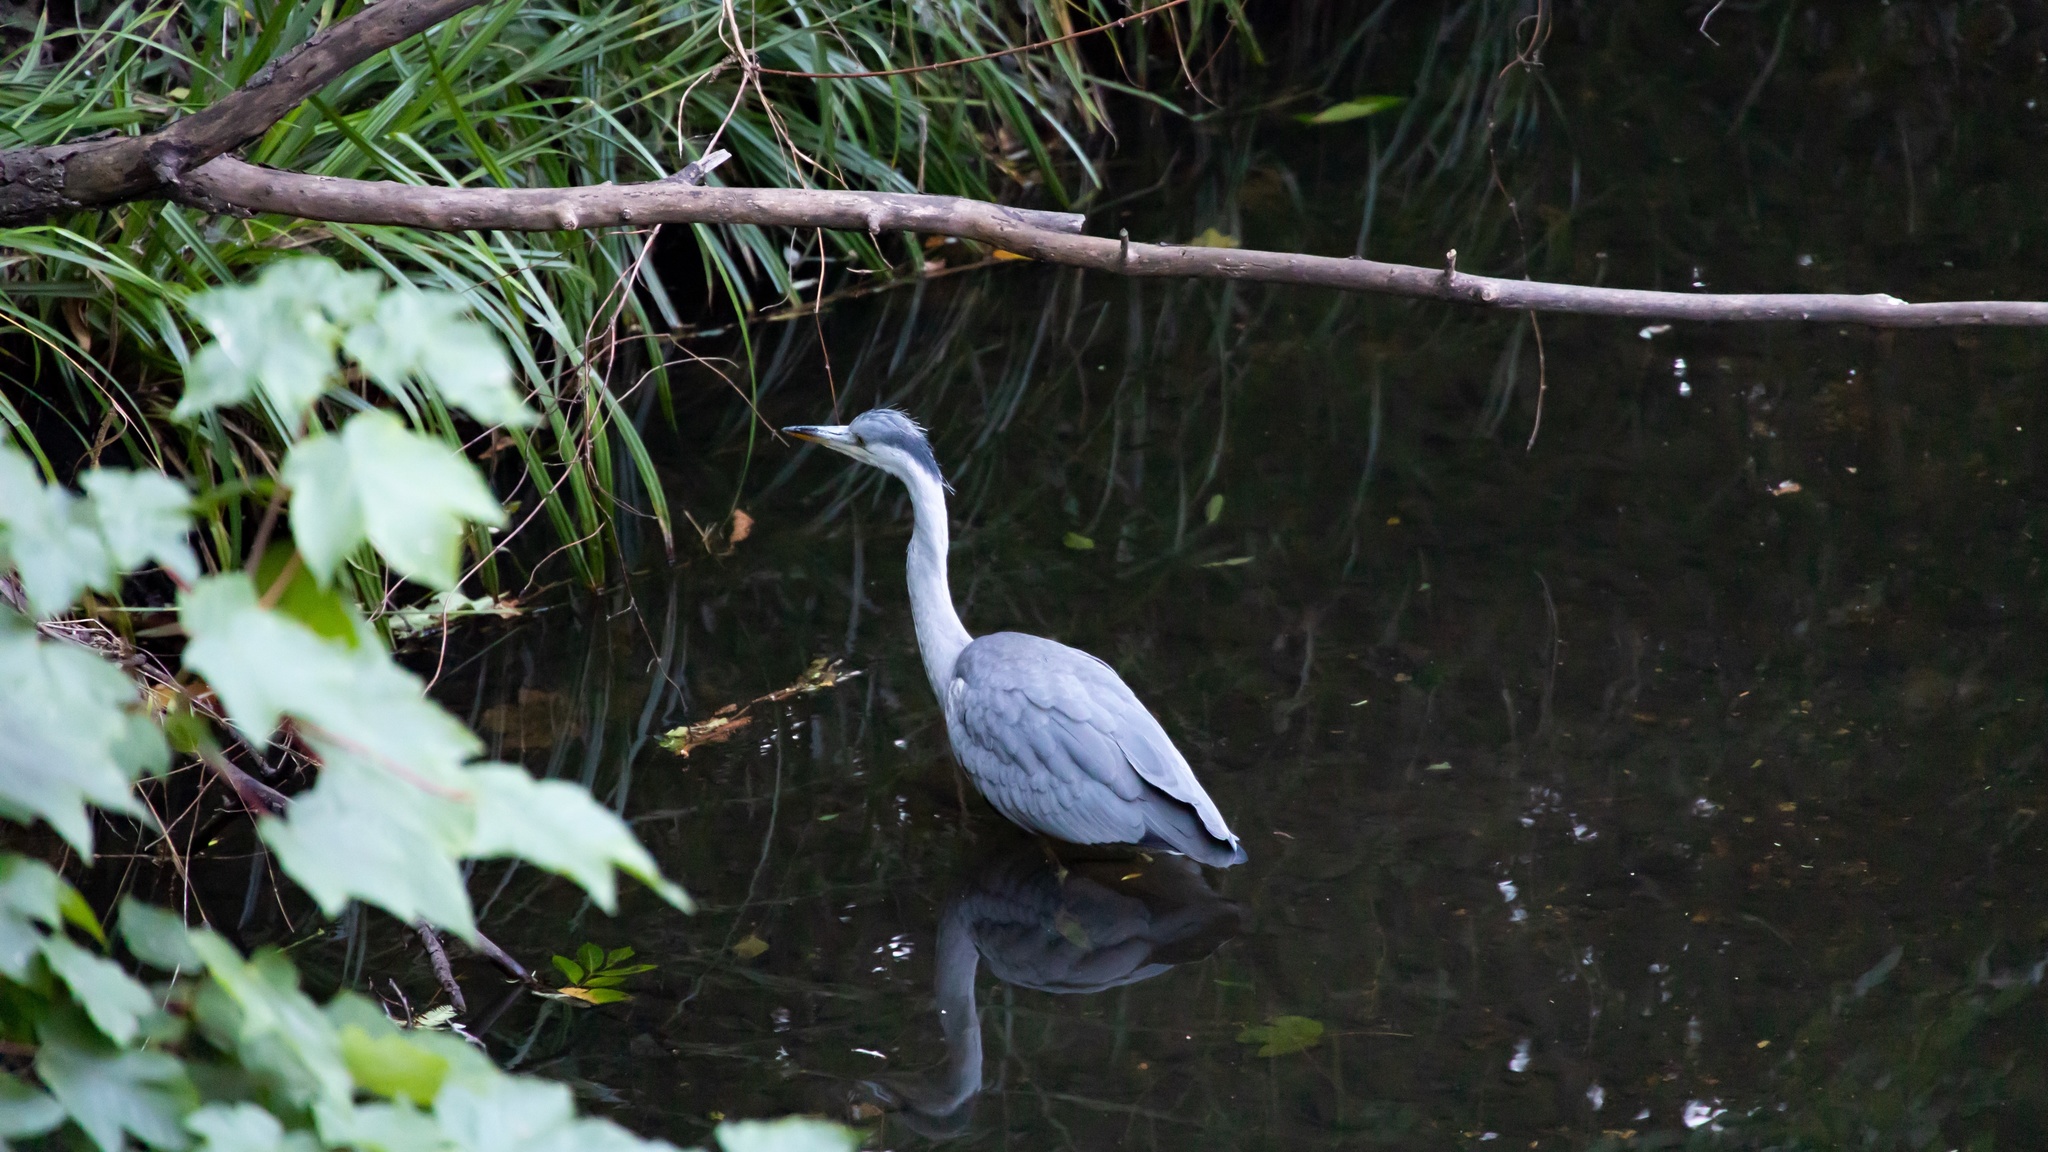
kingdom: Animalia
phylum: Chordata
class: Aves
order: Pelecaniformes
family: Ardeidae
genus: Ardea
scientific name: Ardea cinerea
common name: Grey heron
